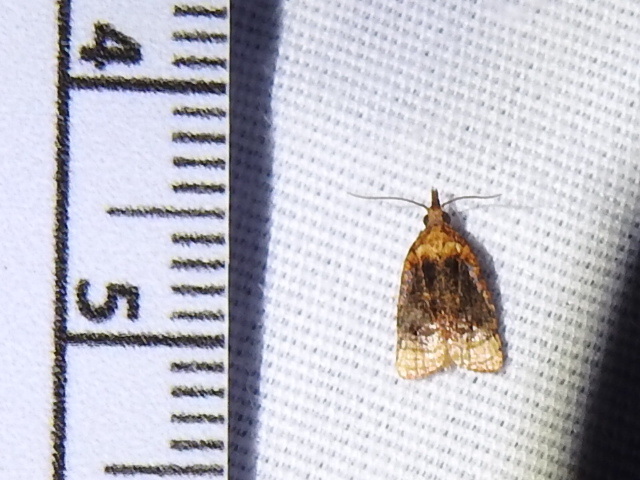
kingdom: Animalia
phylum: Arthropoda
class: Insecta
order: Lepidoptera
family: Tortricidae
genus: Platynota
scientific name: Platynota flavedana
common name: Black-shaded platynota moth
